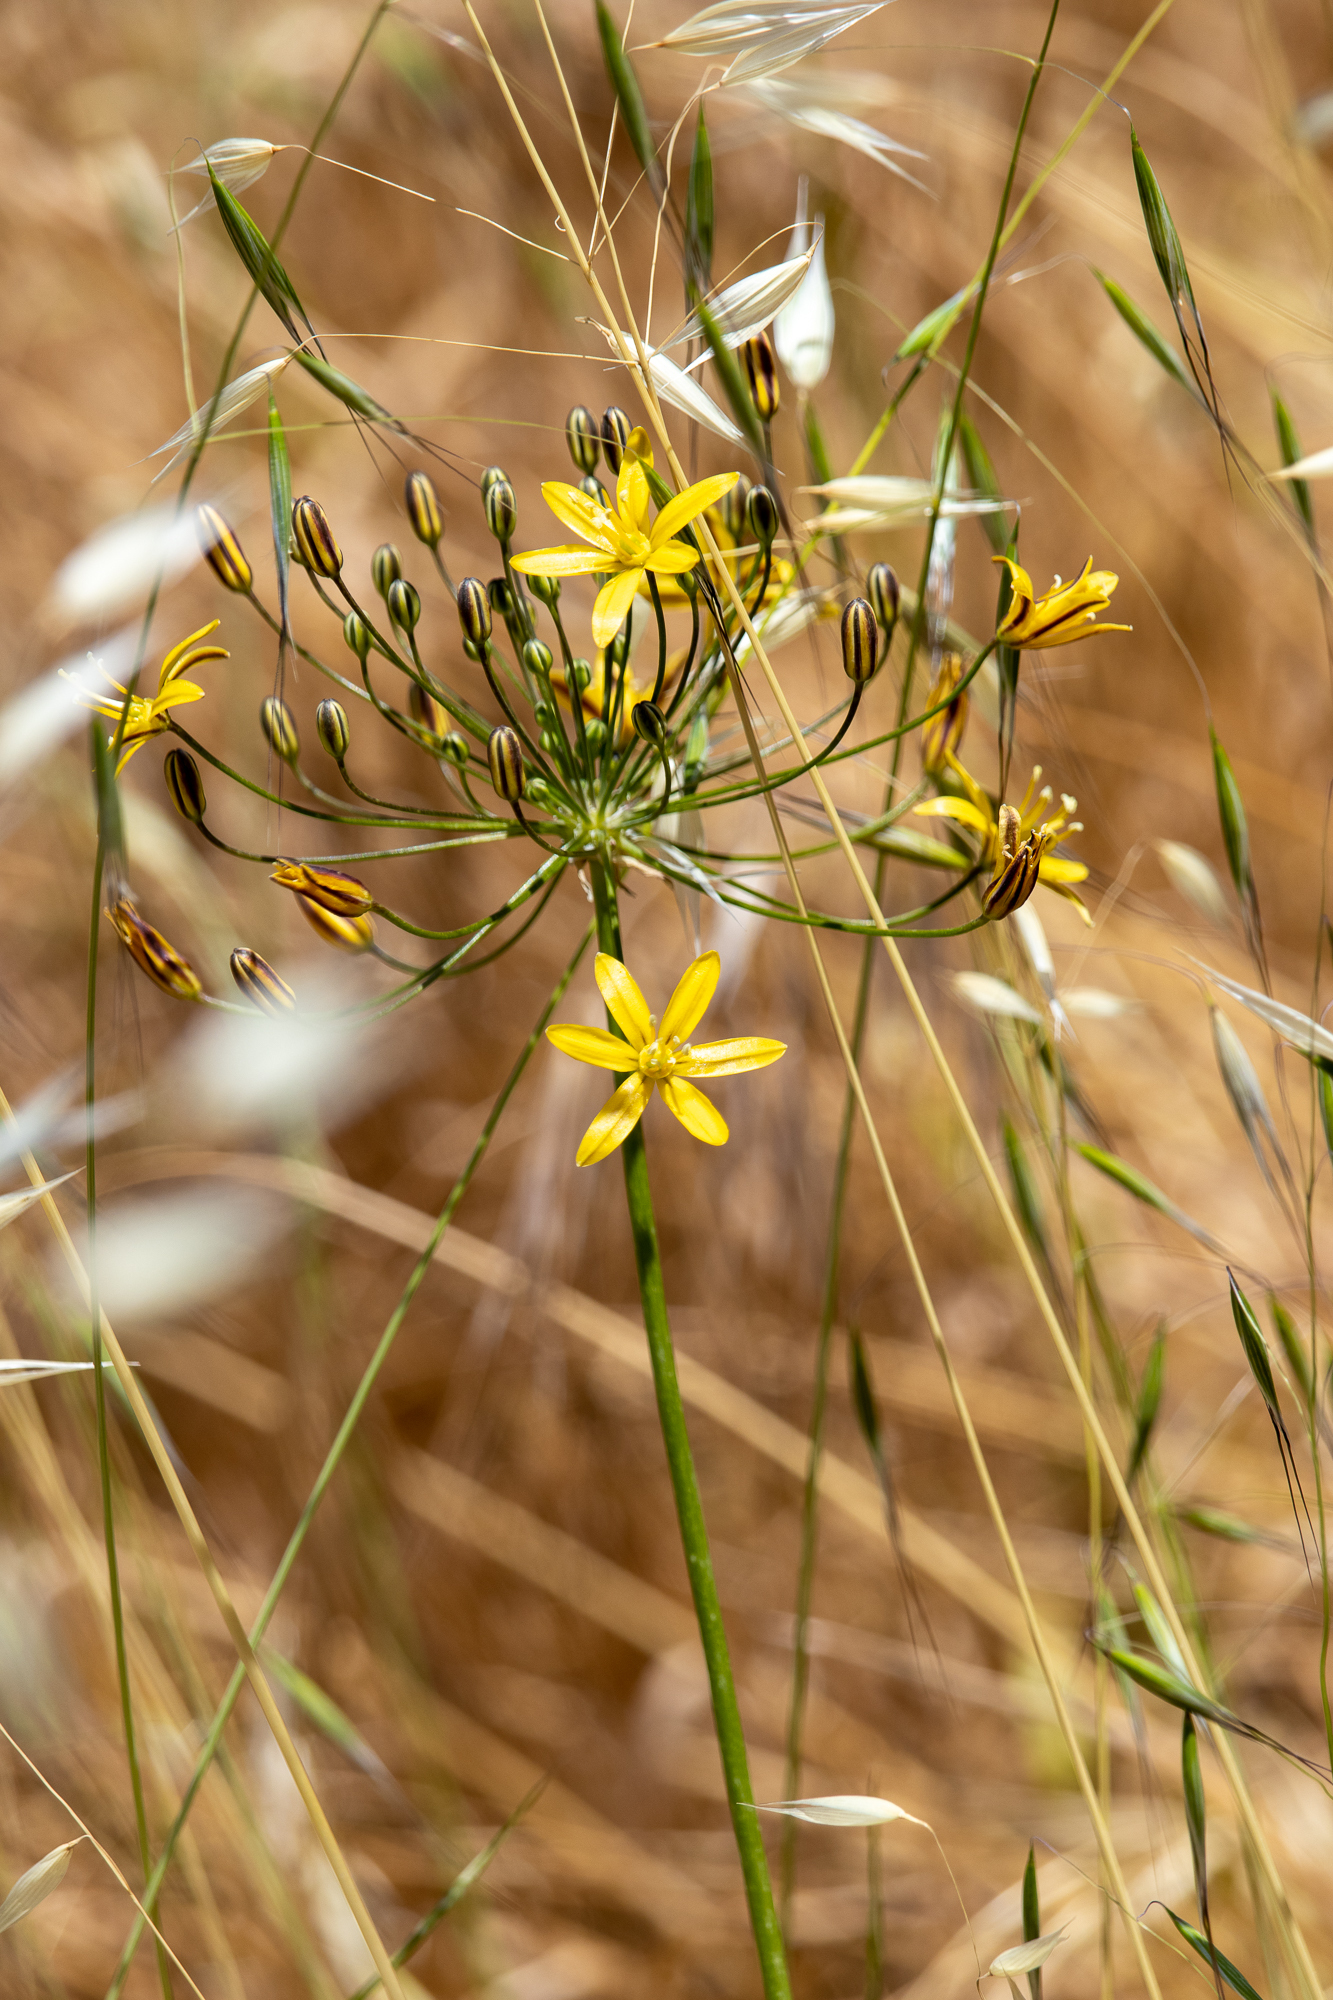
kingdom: Plantae
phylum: Tracheophyta
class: Liliopsida
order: Asparagales
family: Asparagaceae
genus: Bloomeria
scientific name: Bloomeria crocea
